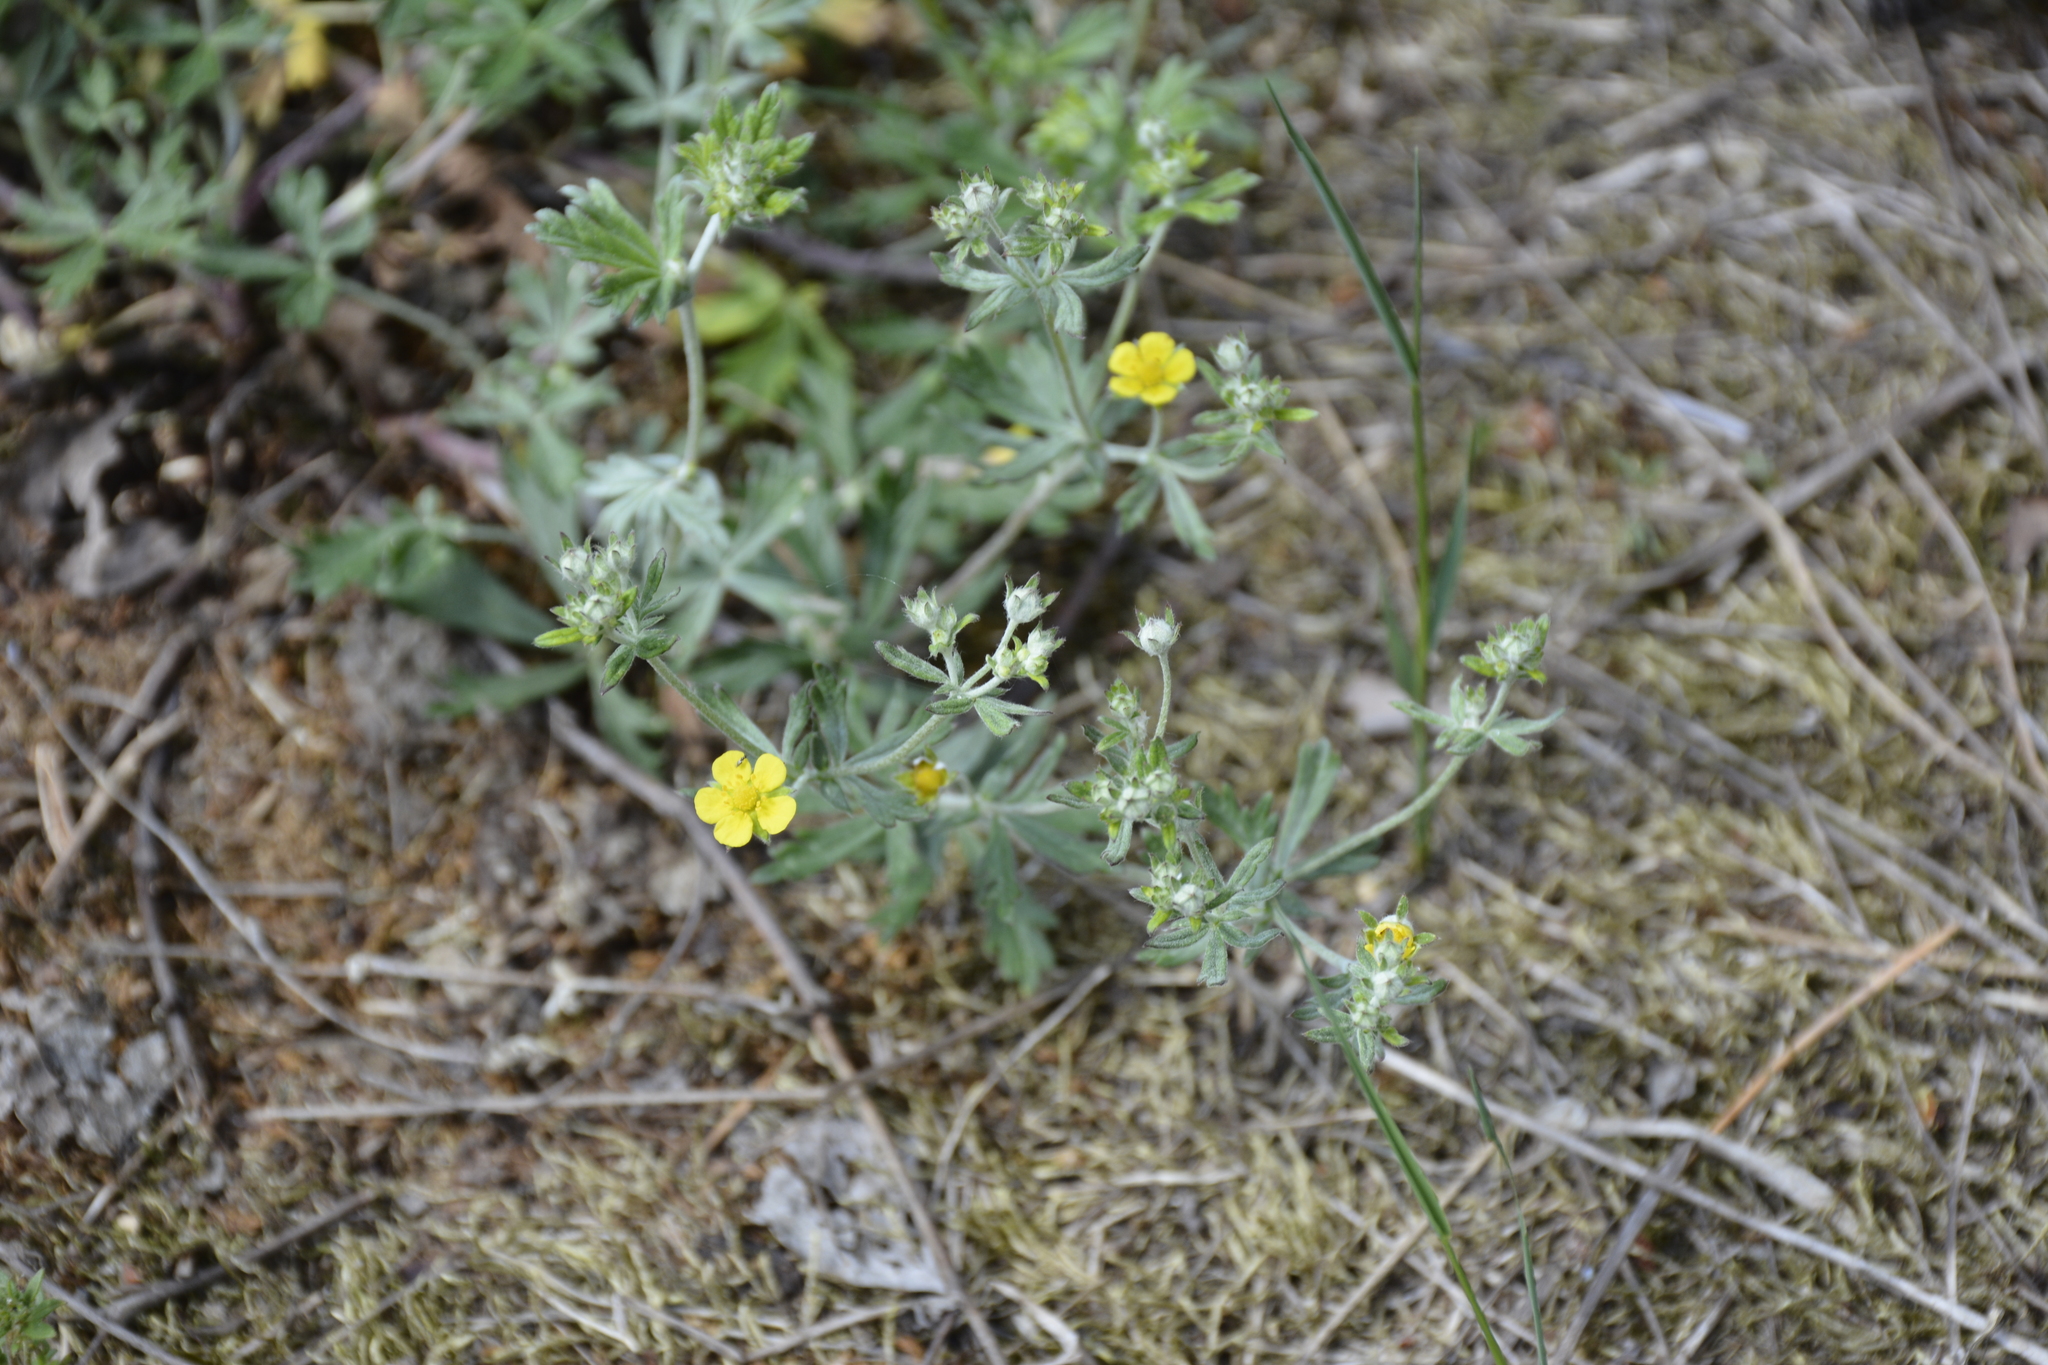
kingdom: Plantae
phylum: Tracheophyta
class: Magnoliopsida
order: Rosales
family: Rosaceae
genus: Potentilla
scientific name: Potentilla argentea
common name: Hoary cinquefoil
